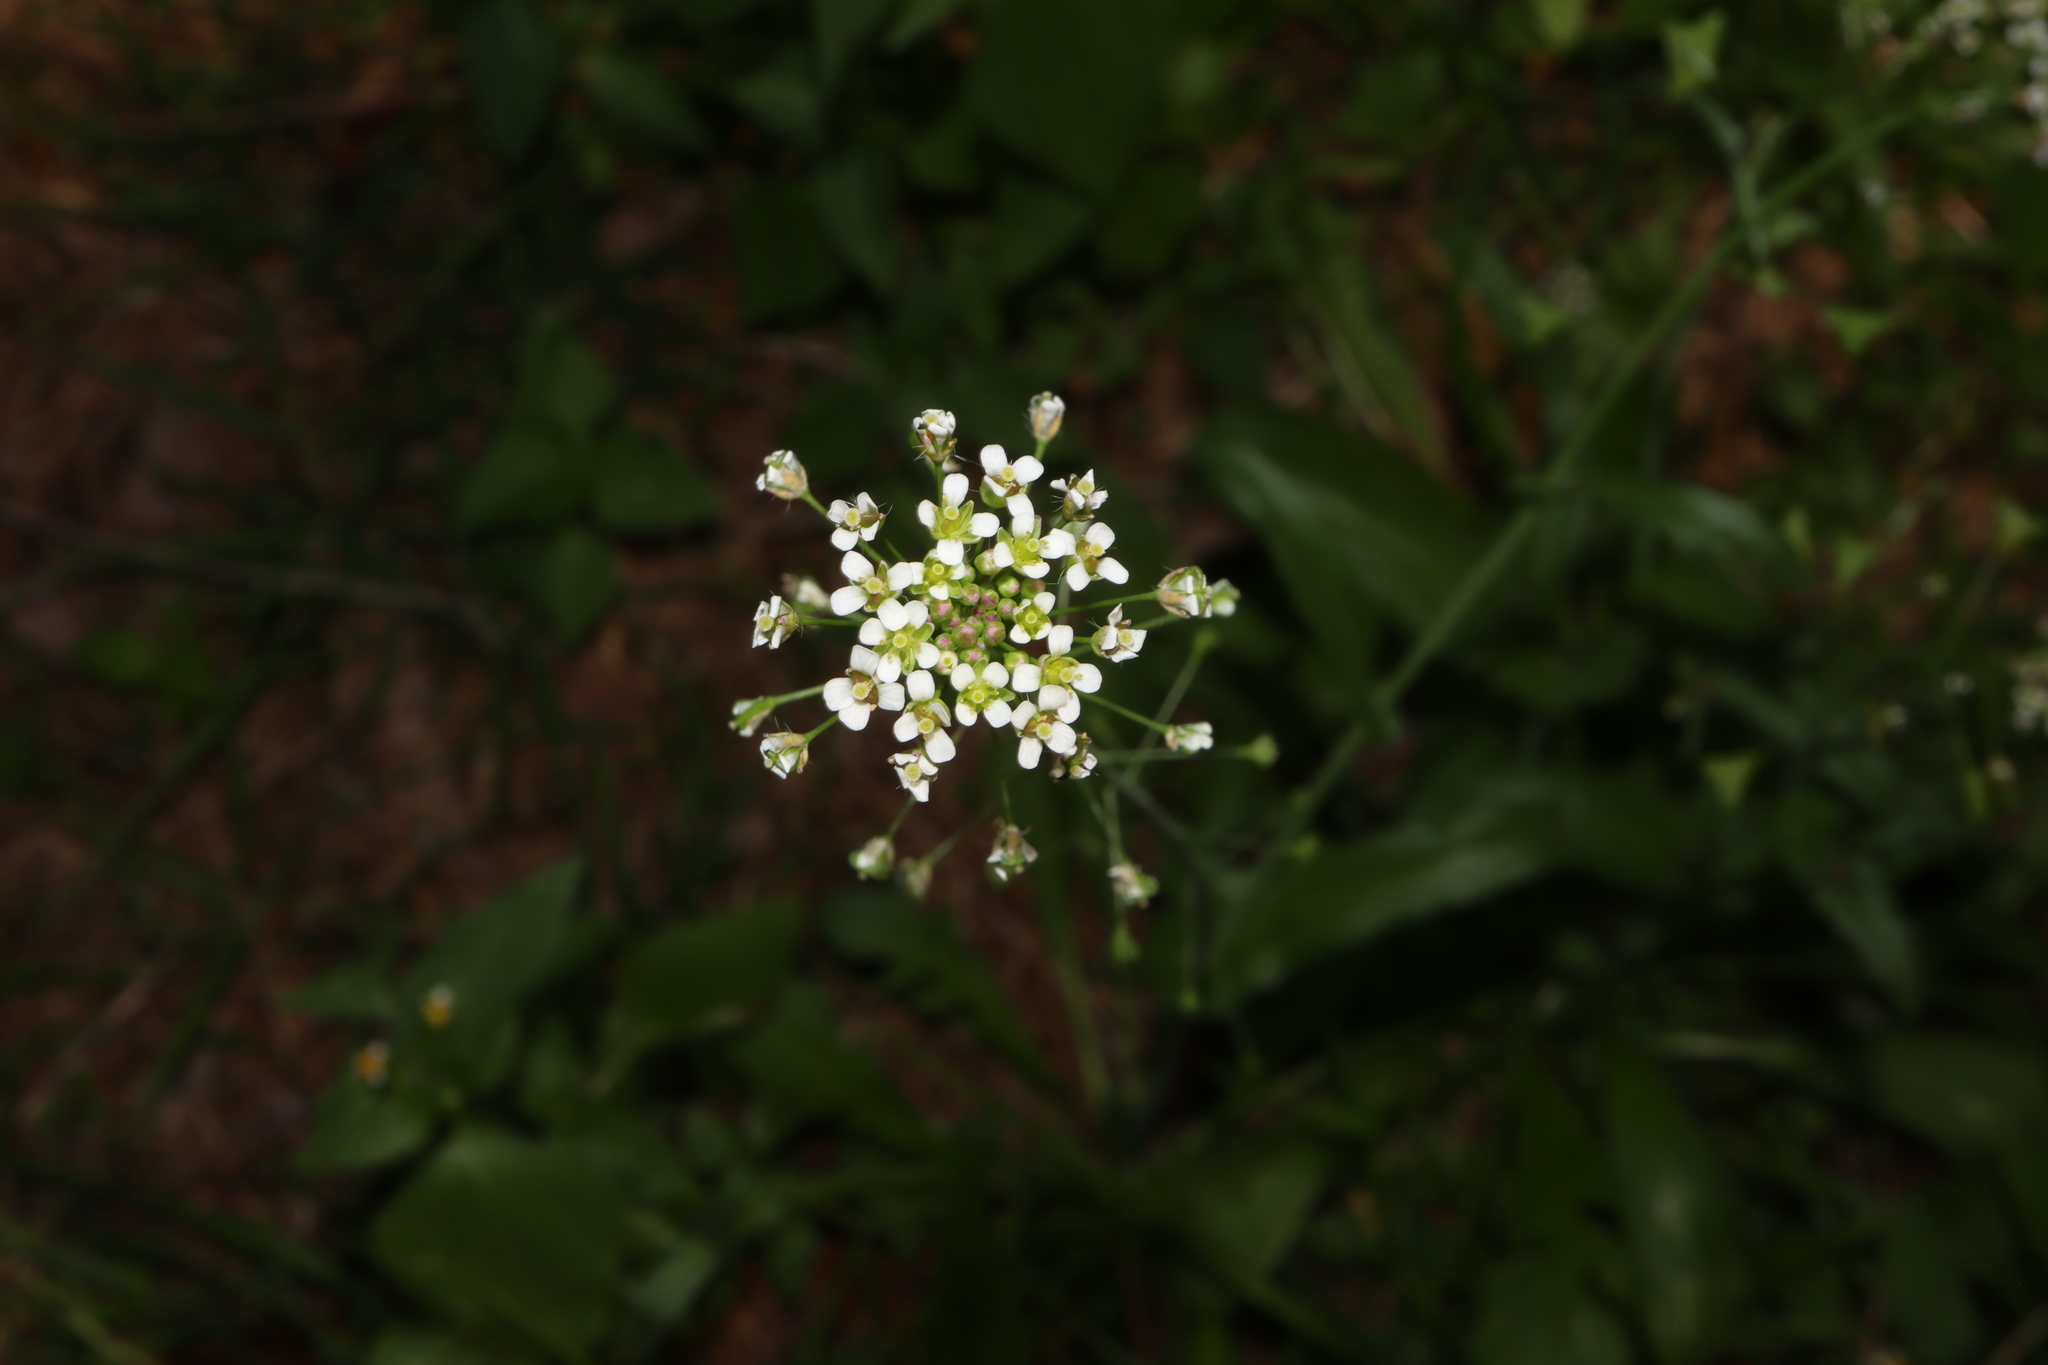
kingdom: Plantae
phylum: Tracheophyta
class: Magnoliopsida
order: Brassicales
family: Brassicaceae
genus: Capsella
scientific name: Capsella bursa-pastoris
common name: Shepherd's purse
